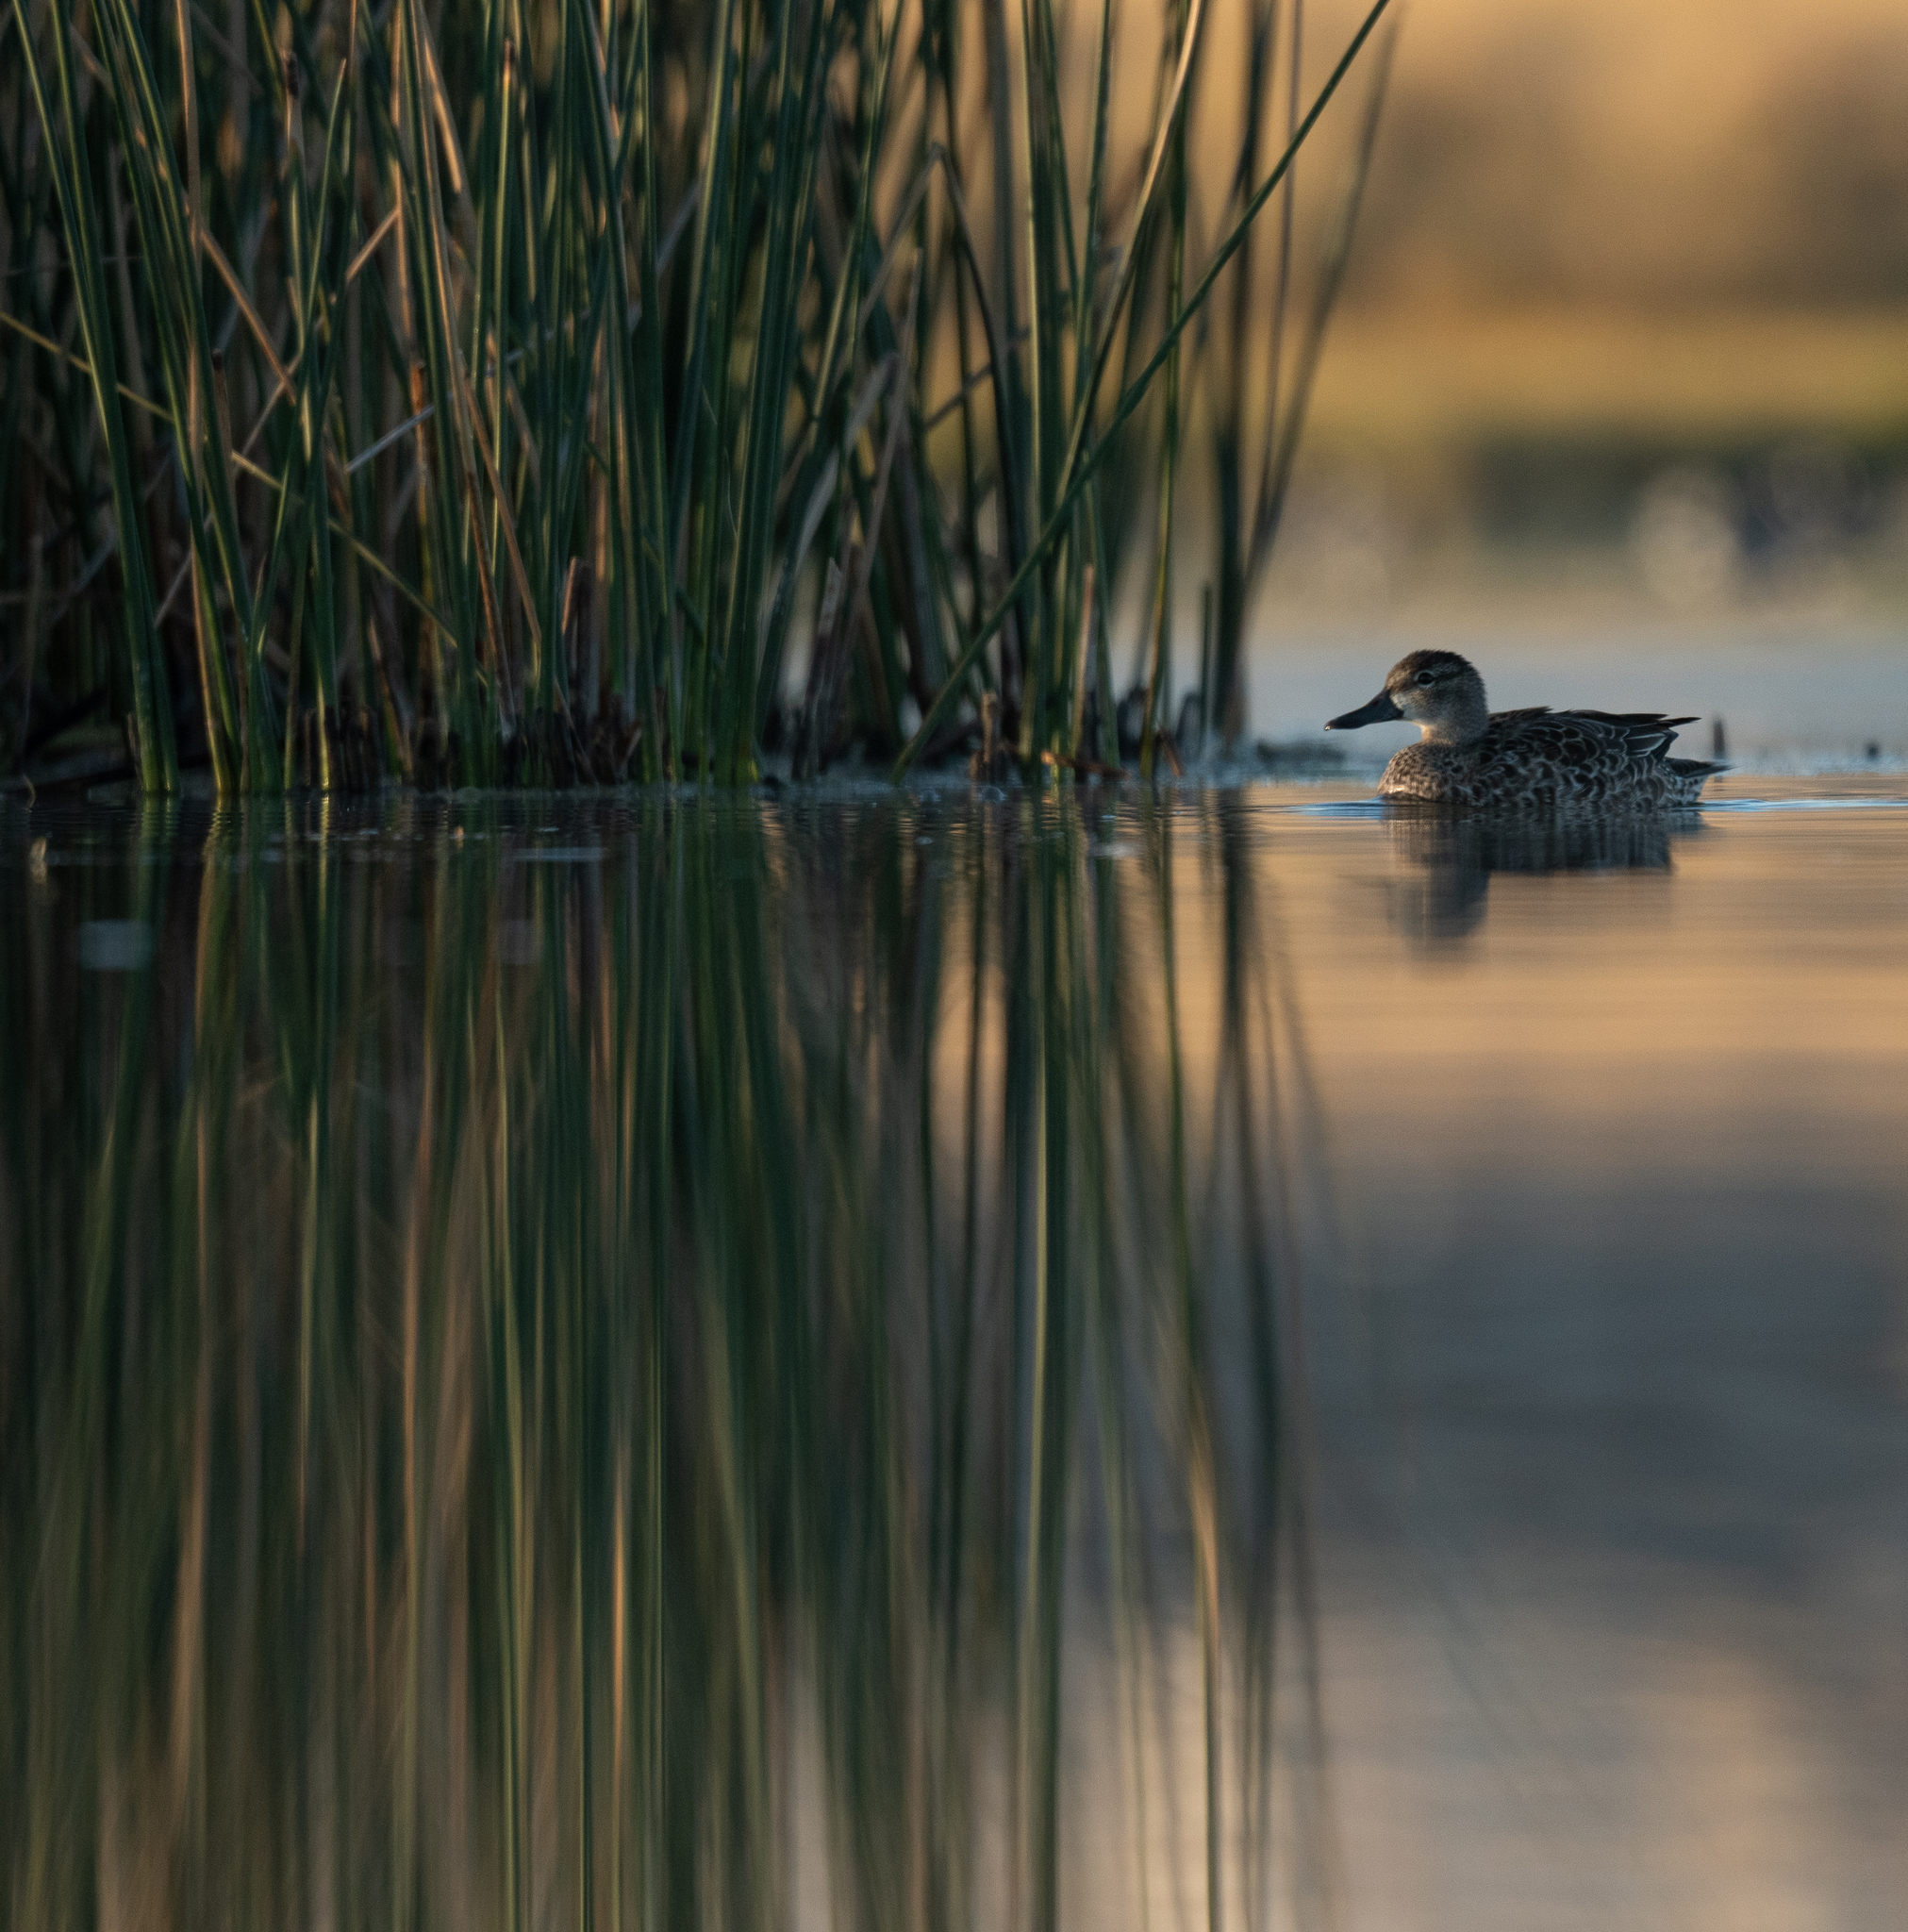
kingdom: Animalia
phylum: Chordata
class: Aves
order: Anseriformes
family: Anatidae
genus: Anas
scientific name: Anas crecca
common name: Eurasian teal
